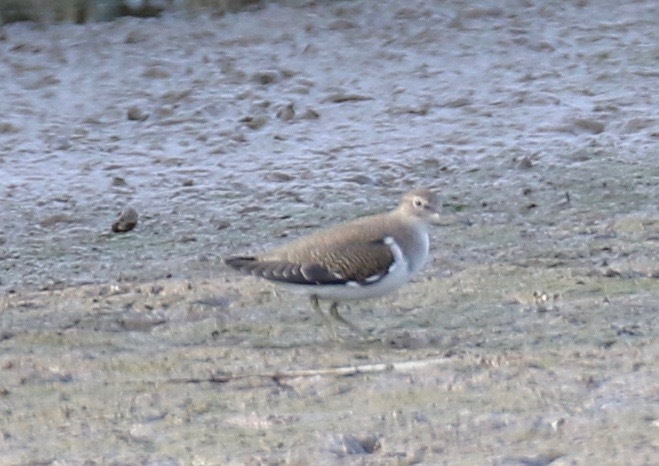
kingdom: Animalia
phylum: Chordata
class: Aves
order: Charadriiformes
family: Scolopacidae
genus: Actitis
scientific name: Actitis hypoleucos
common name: Common sandpiper
